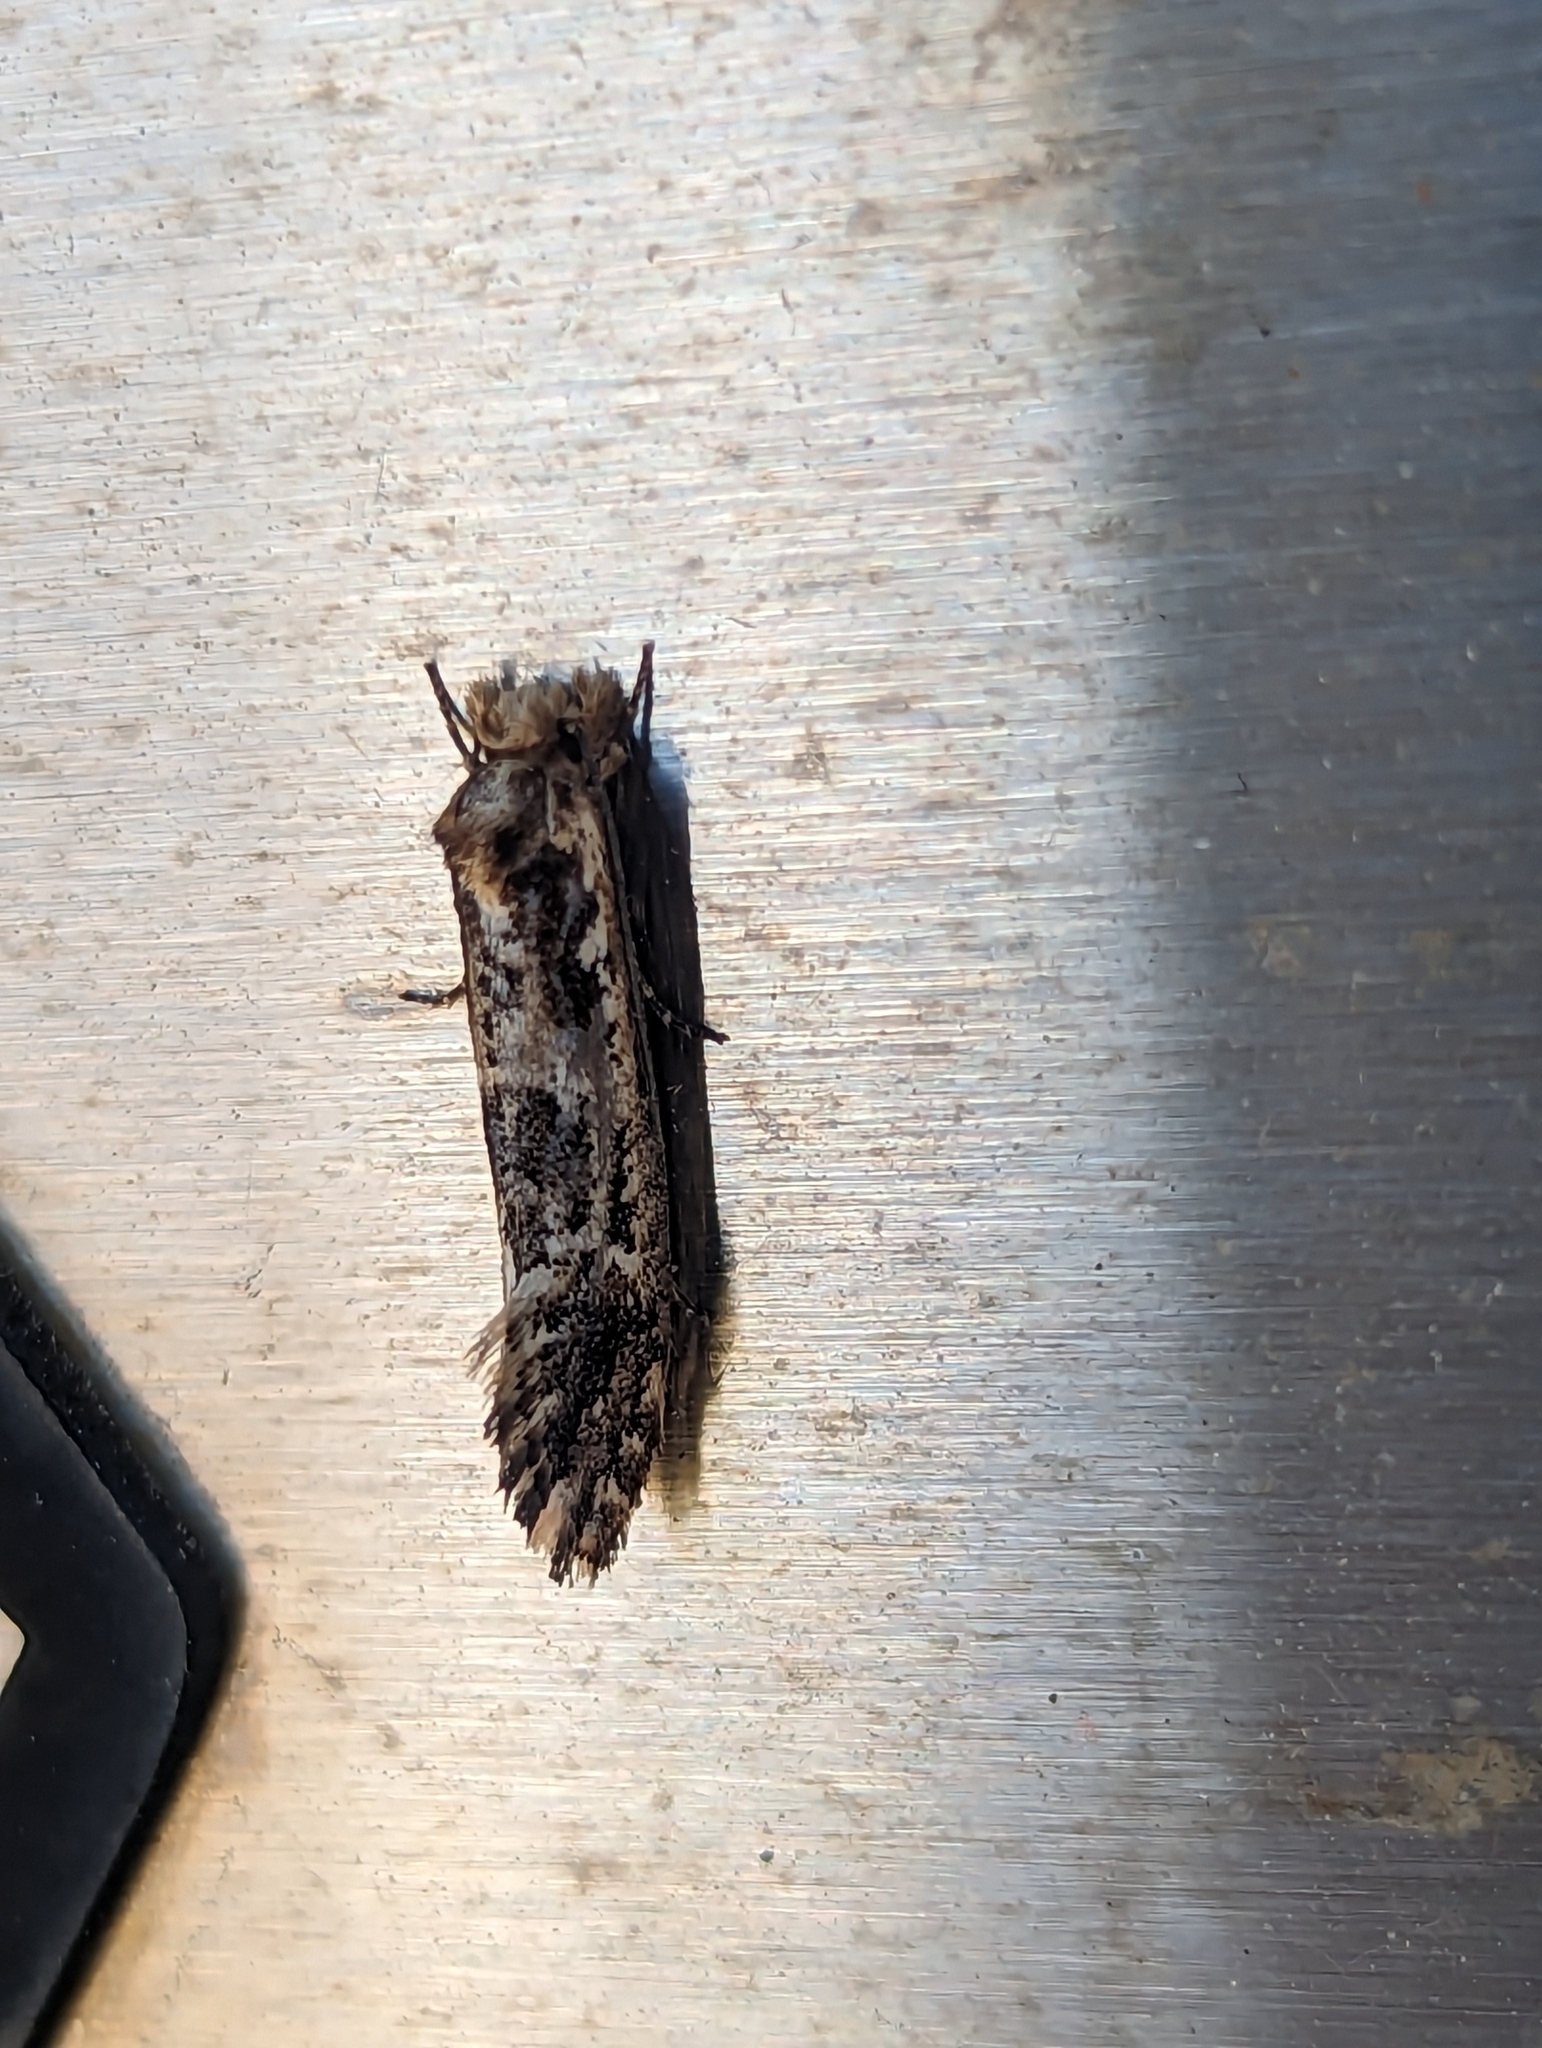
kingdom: Animalia
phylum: Arthropoda
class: Insecta
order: Lepidoptera
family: Tineidae
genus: Moerarchis
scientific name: Moerarchis inconcisella
